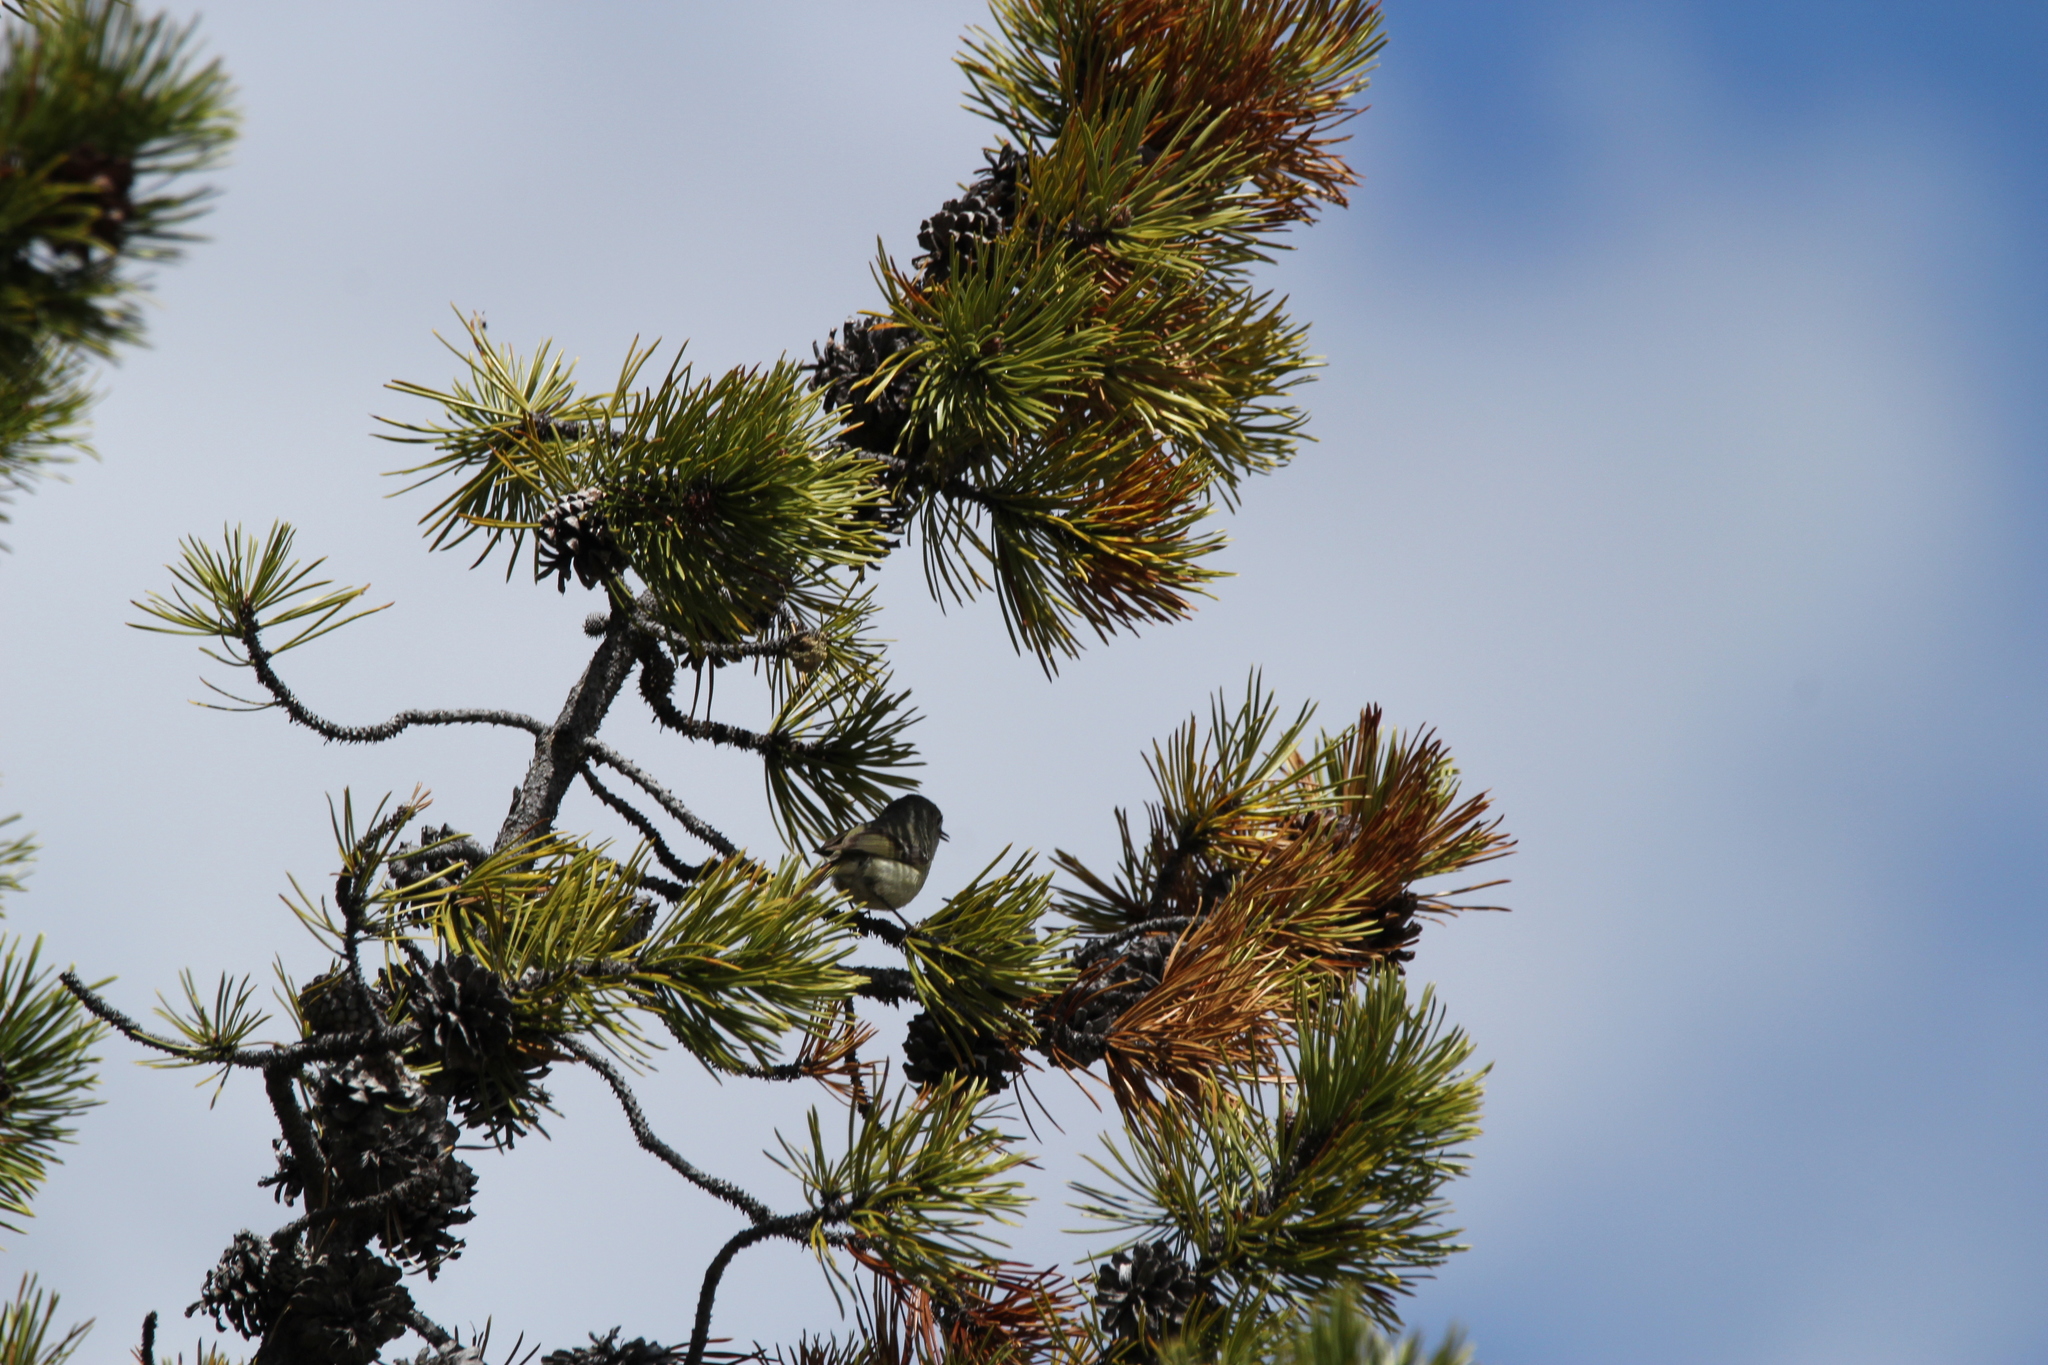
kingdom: Animalia
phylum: Chordata
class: Aves
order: Passeriformes
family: Regulidae
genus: Regulus
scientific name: Regulus calendula
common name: Ruby-crowned kinglet
